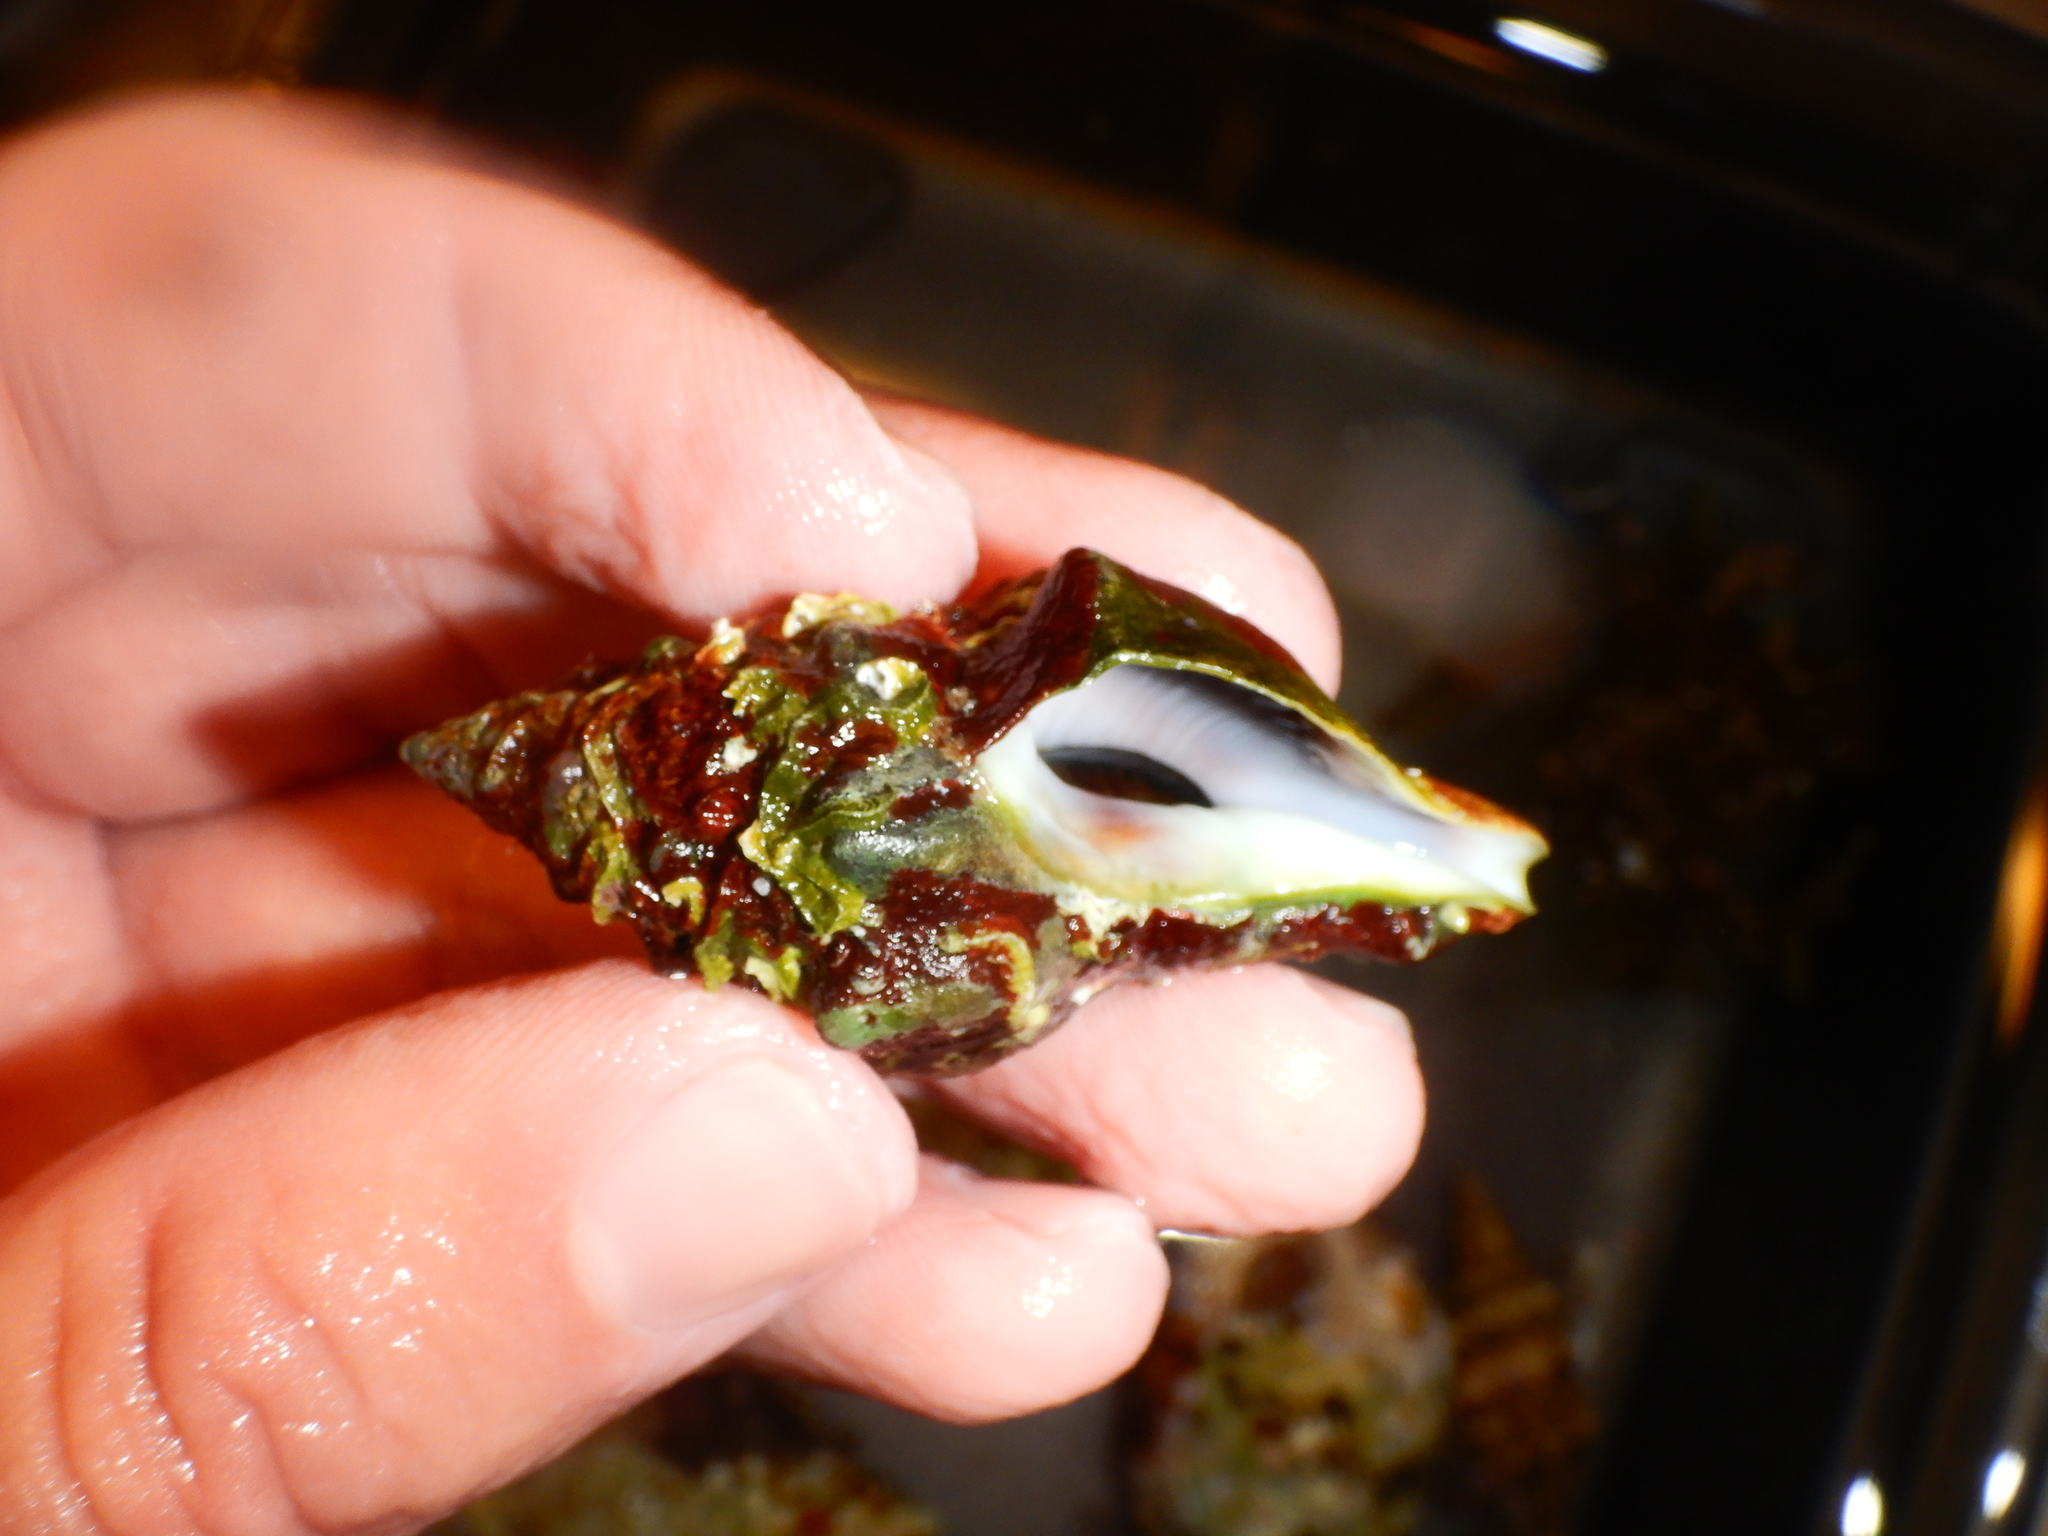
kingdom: Animalia
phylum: Mollusca
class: Gastropoda
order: Neogastropoda
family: Fasciolariidae
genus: Tarantinaea
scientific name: Tarantinaea lignaria
